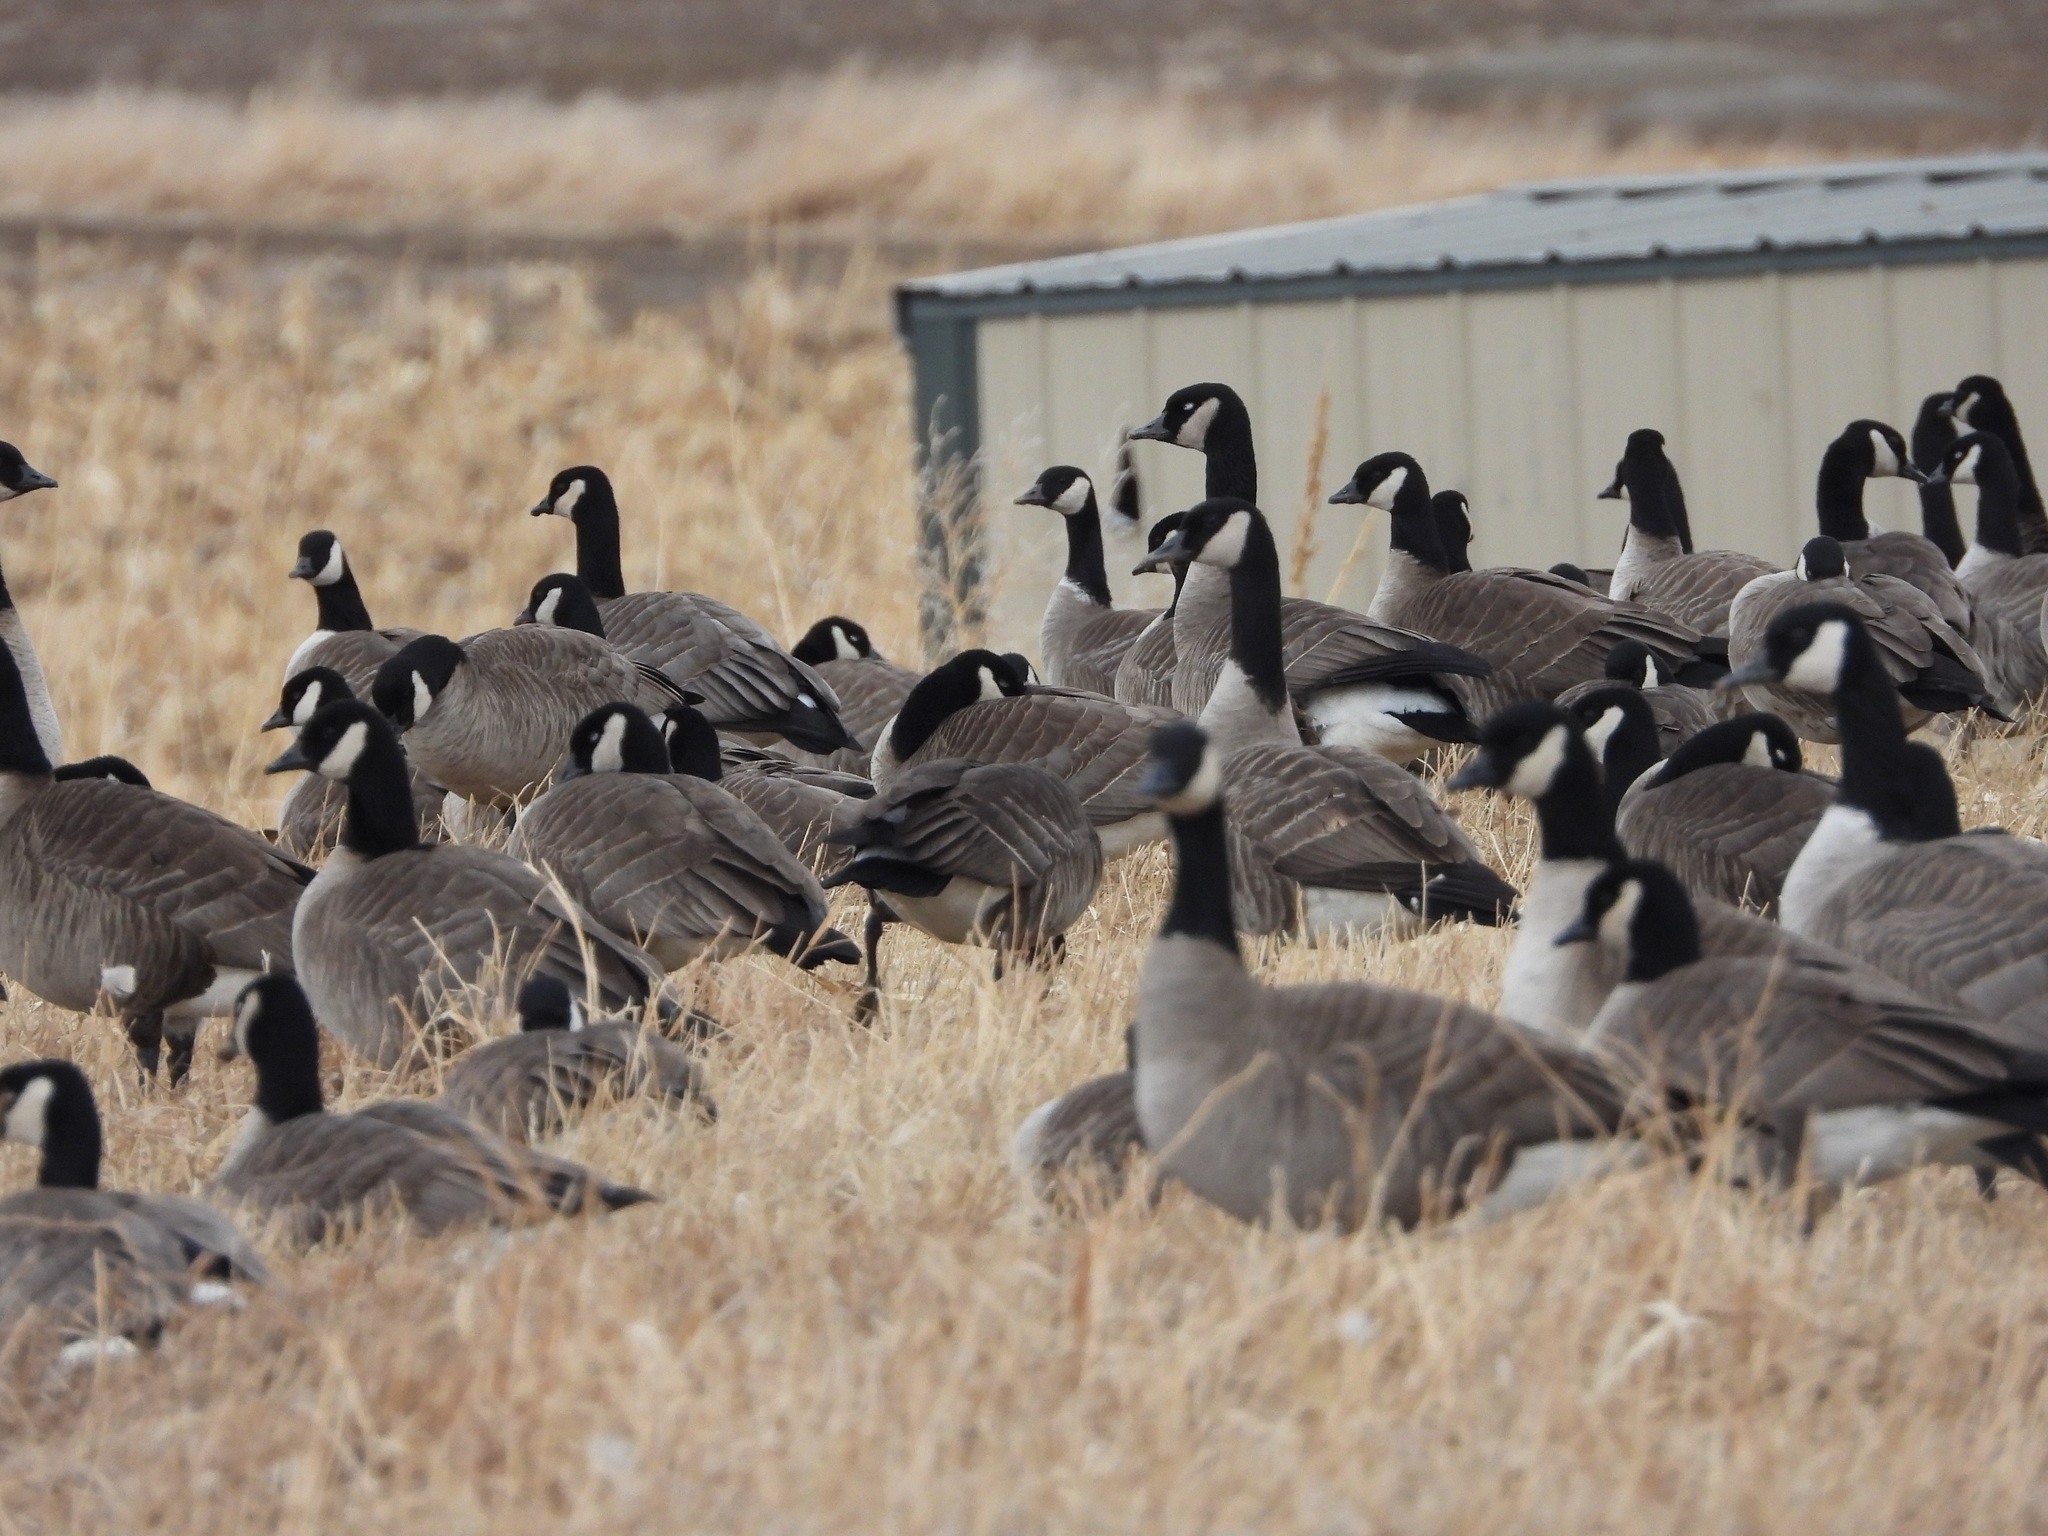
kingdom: Animalia
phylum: Chordata
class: Aves
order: Anseriformes
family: Anatidae
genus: Branta
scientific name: Branta canadensis
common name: Canada goose
